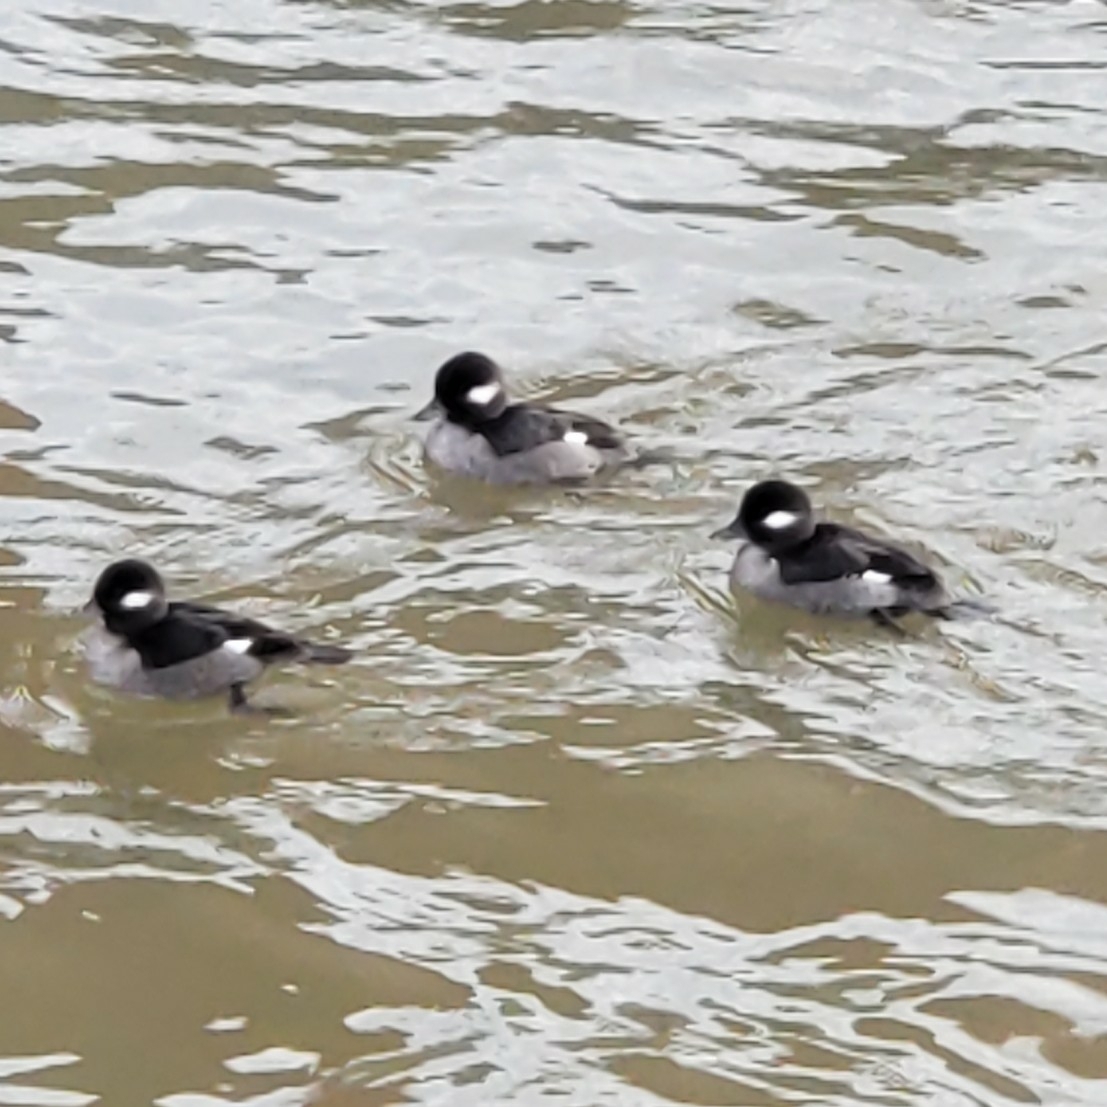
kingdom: Animalia
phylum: Chordata
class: Aves
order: Anseriformes
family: Anatidae
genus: Bucephala
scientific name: Bucephala albeola
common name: Bufflehead
